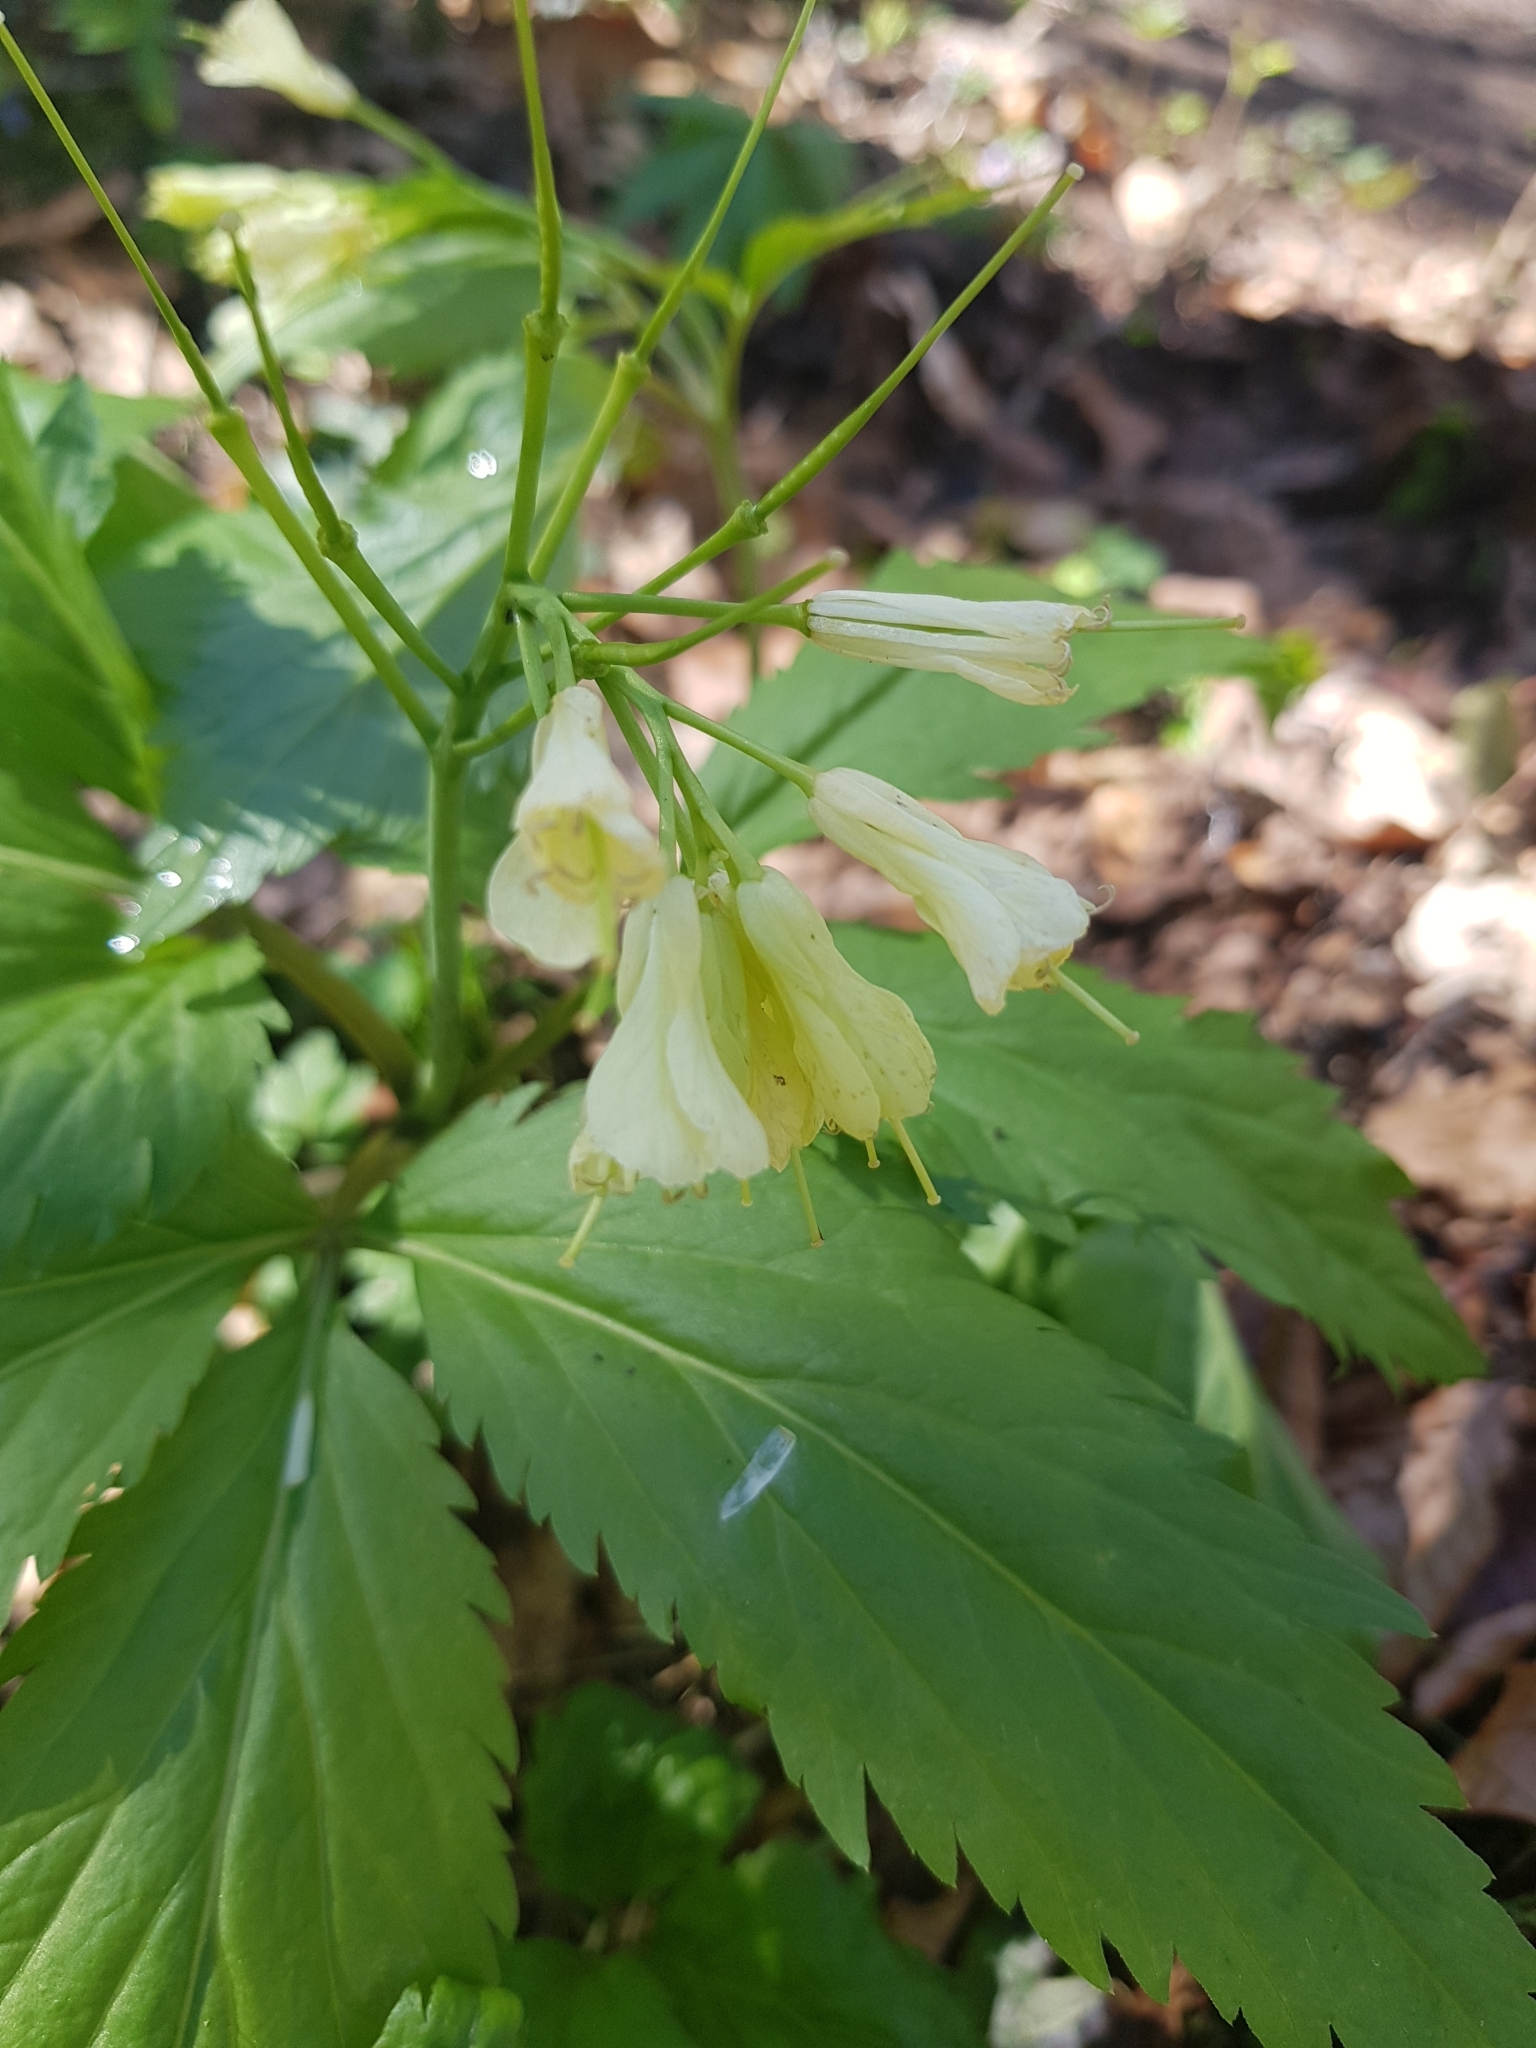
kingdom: Plantae
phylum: Tracheophyta
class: Magnoliopsida
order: Brassicales
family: Brassicaceae
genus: Cardamine
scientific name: Cardamine enneaphyllos
